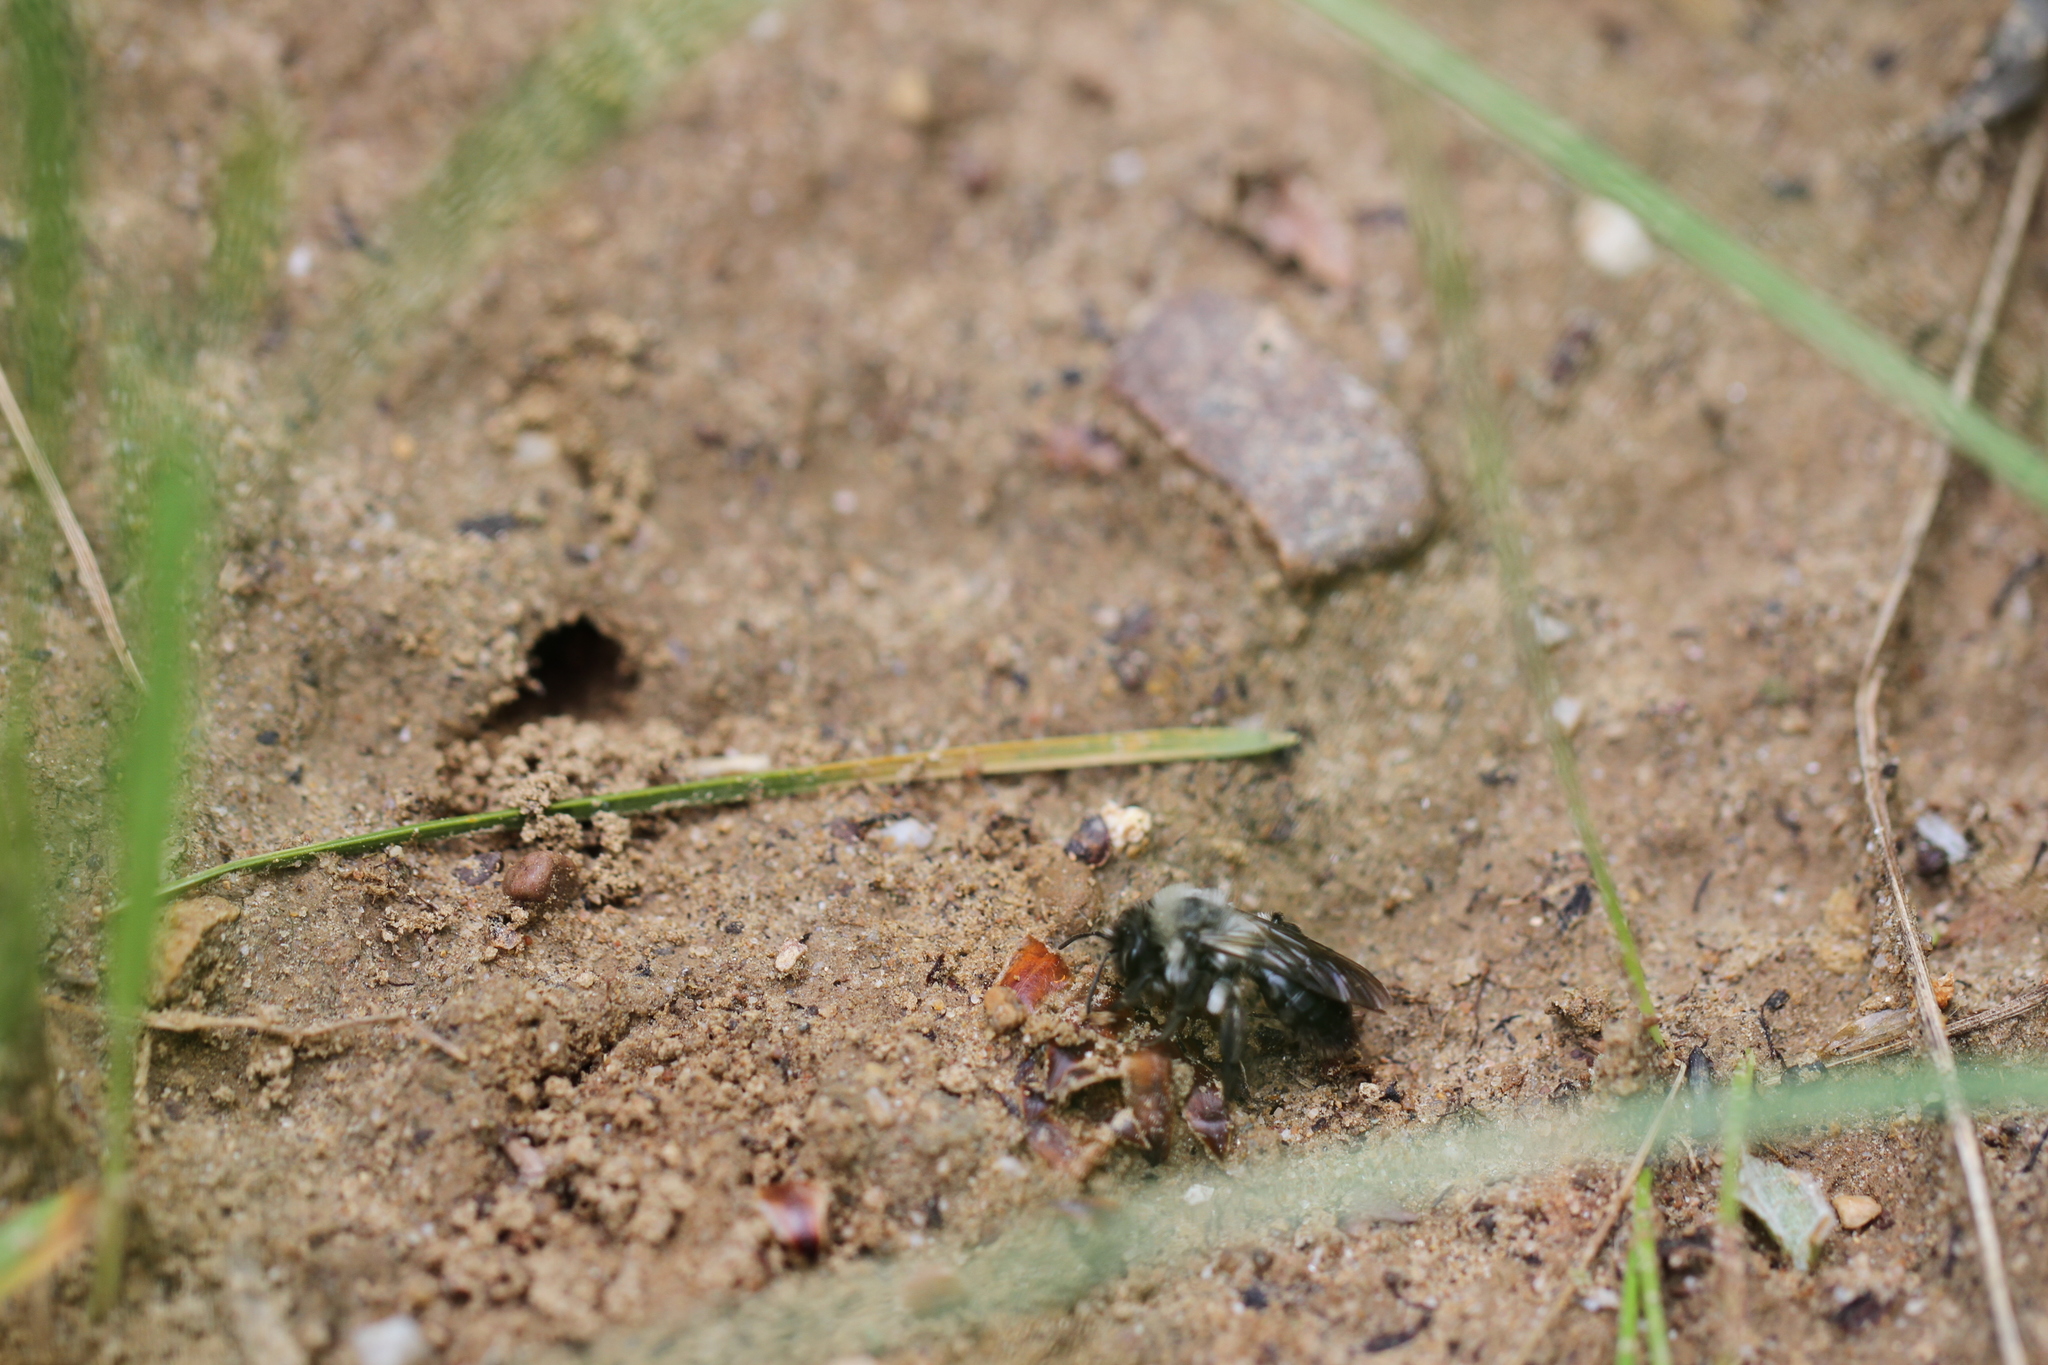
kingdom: Animalia
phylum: Arthropoda
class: Insecta
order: Hymenoptera
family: Andrenidae
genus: Andrena
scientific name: Andrena vaga
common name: Grey-backed mining bee
